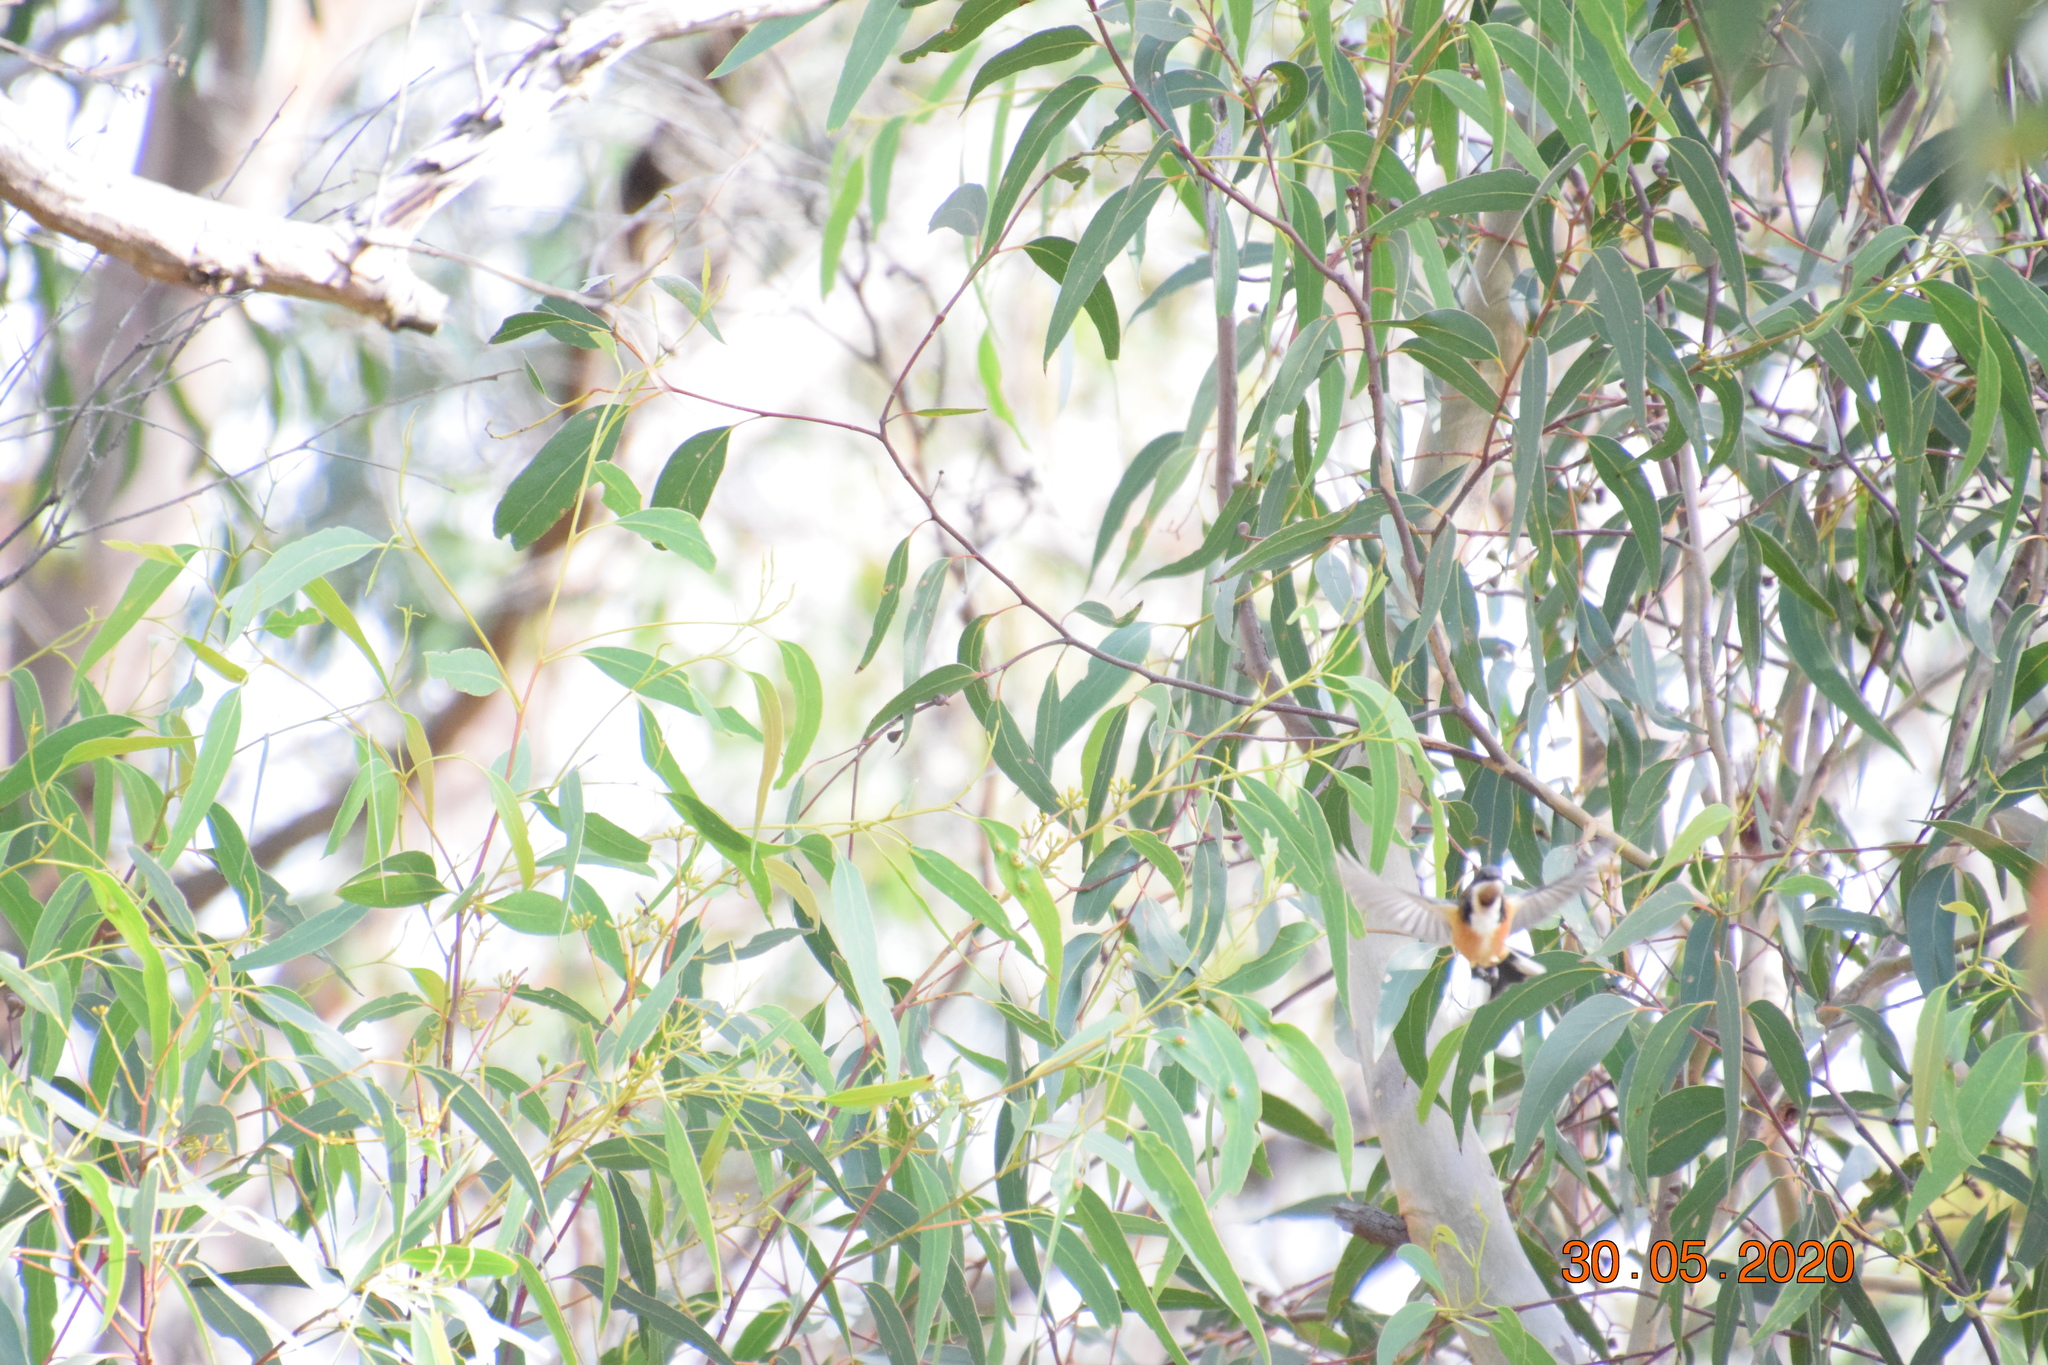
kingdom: Animalia
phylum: Chordata
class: Aves
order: Passeriformes
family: Meliphagidae
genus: Acanthorhynchus
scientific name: Acanthorhynchus tenuirostris
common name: Eastern spinebill
